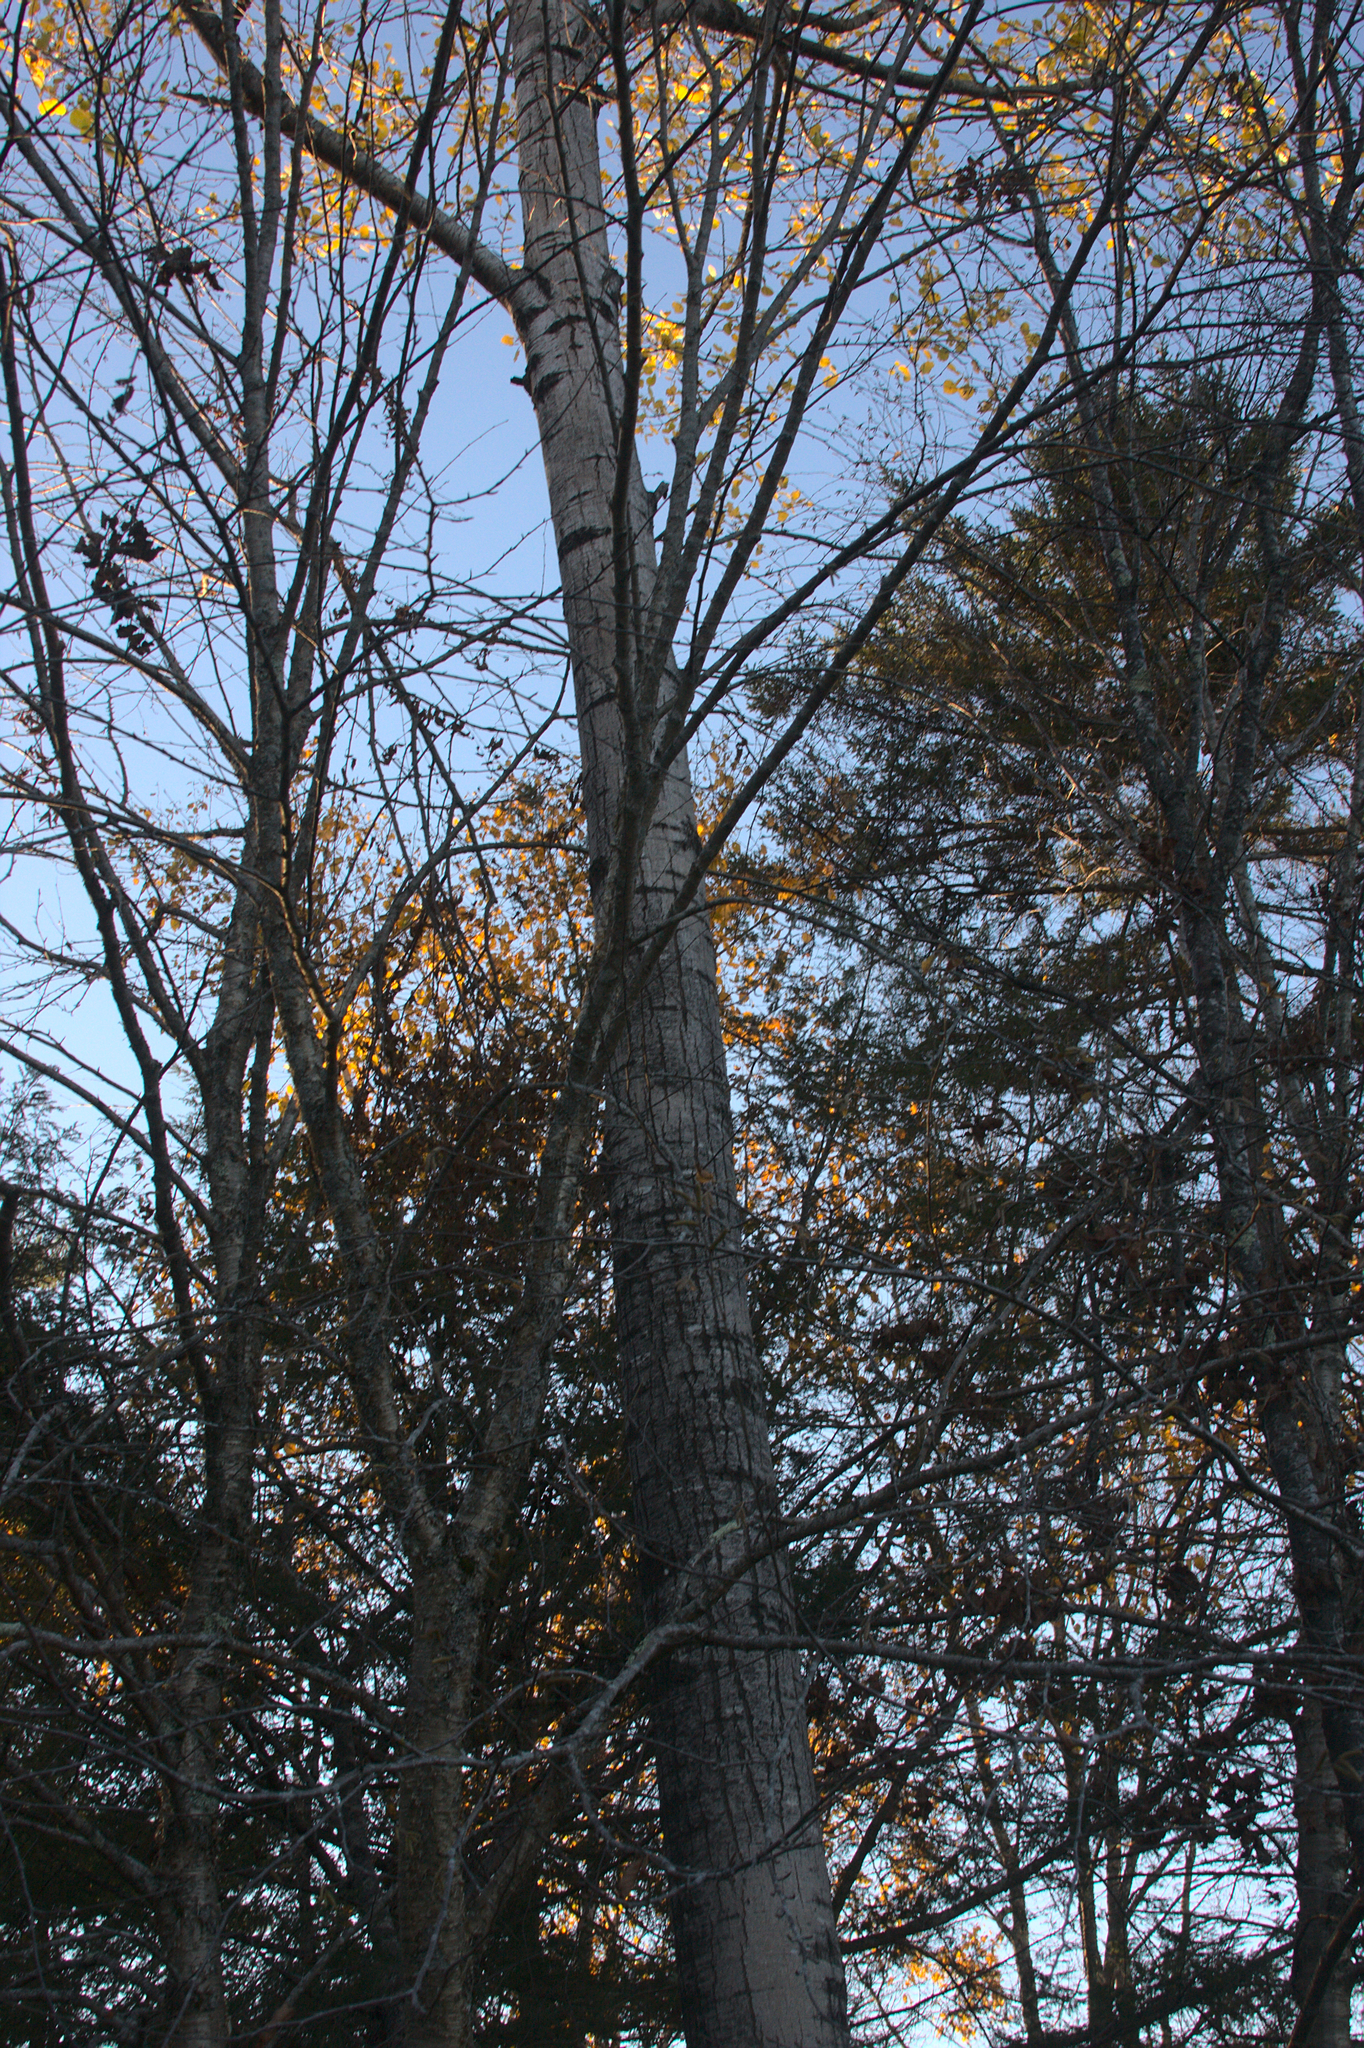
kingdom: Plantae
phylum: Tracheophyta
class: Magnoliopsida
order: Malpighiales
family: Salicaceae
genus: Populus
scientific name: Populus tremuloides
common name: Quaking aspen
